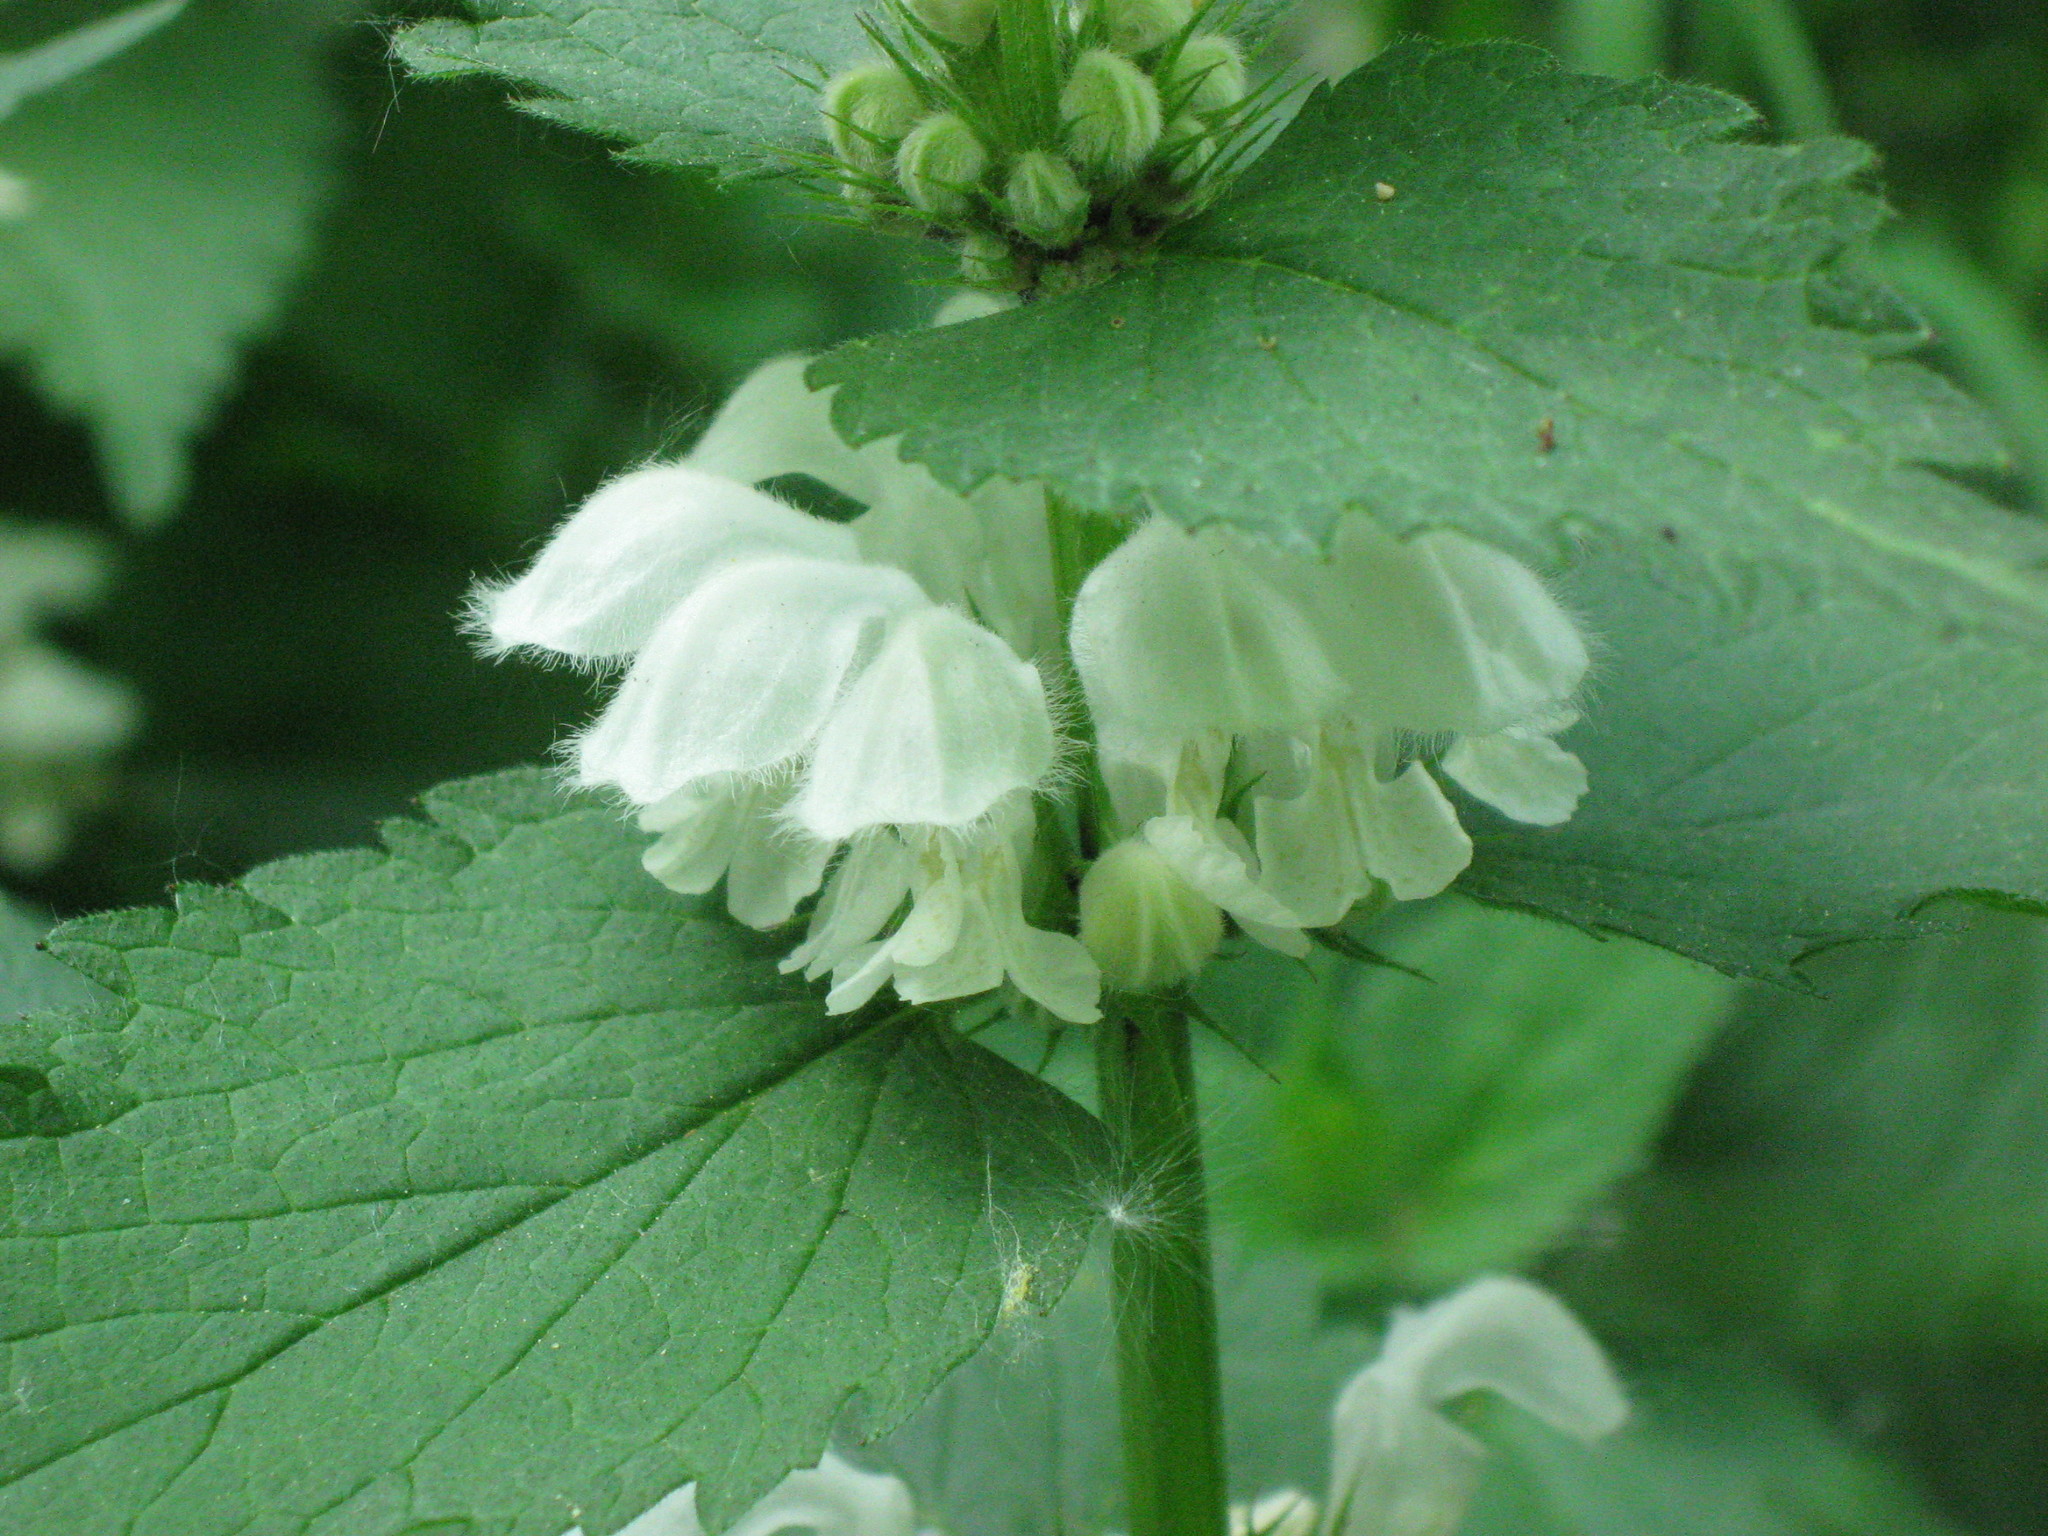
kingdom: Plantae
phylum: Tracheophyta
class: Magnoliopsida
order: Lamiales
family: Lamiaceae
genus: Lamium
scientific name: Lamium album
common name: White dead-nettle
